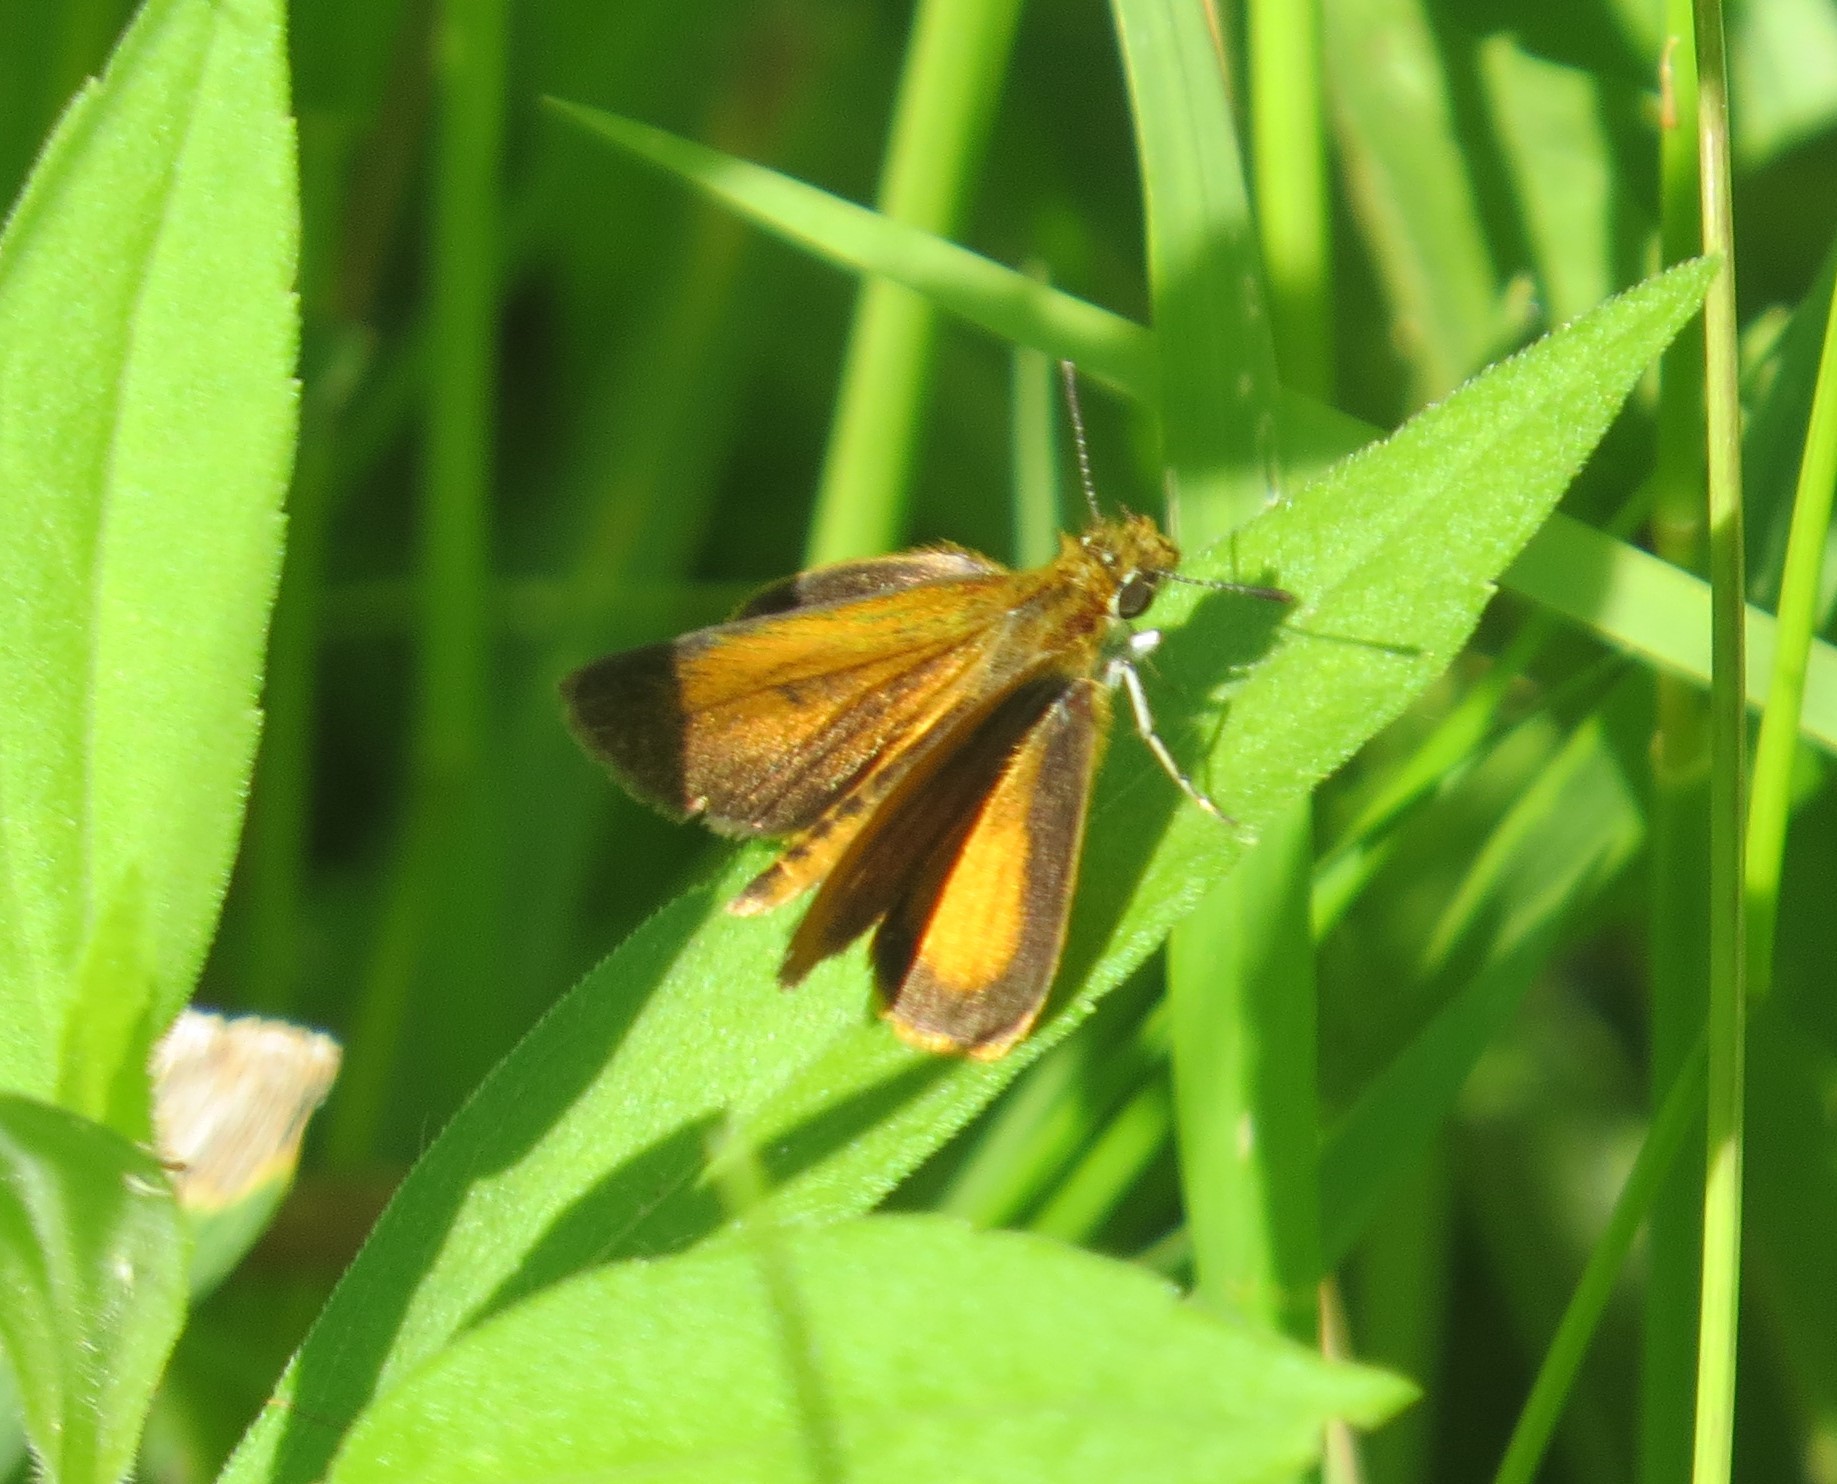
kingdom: Animalia
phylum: Arthropoda
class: Insecta
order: Lepidoptera
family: Hesperiidae
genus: Ancyloxypha
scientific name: Ancyloxypha numitor
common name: Least skipper
